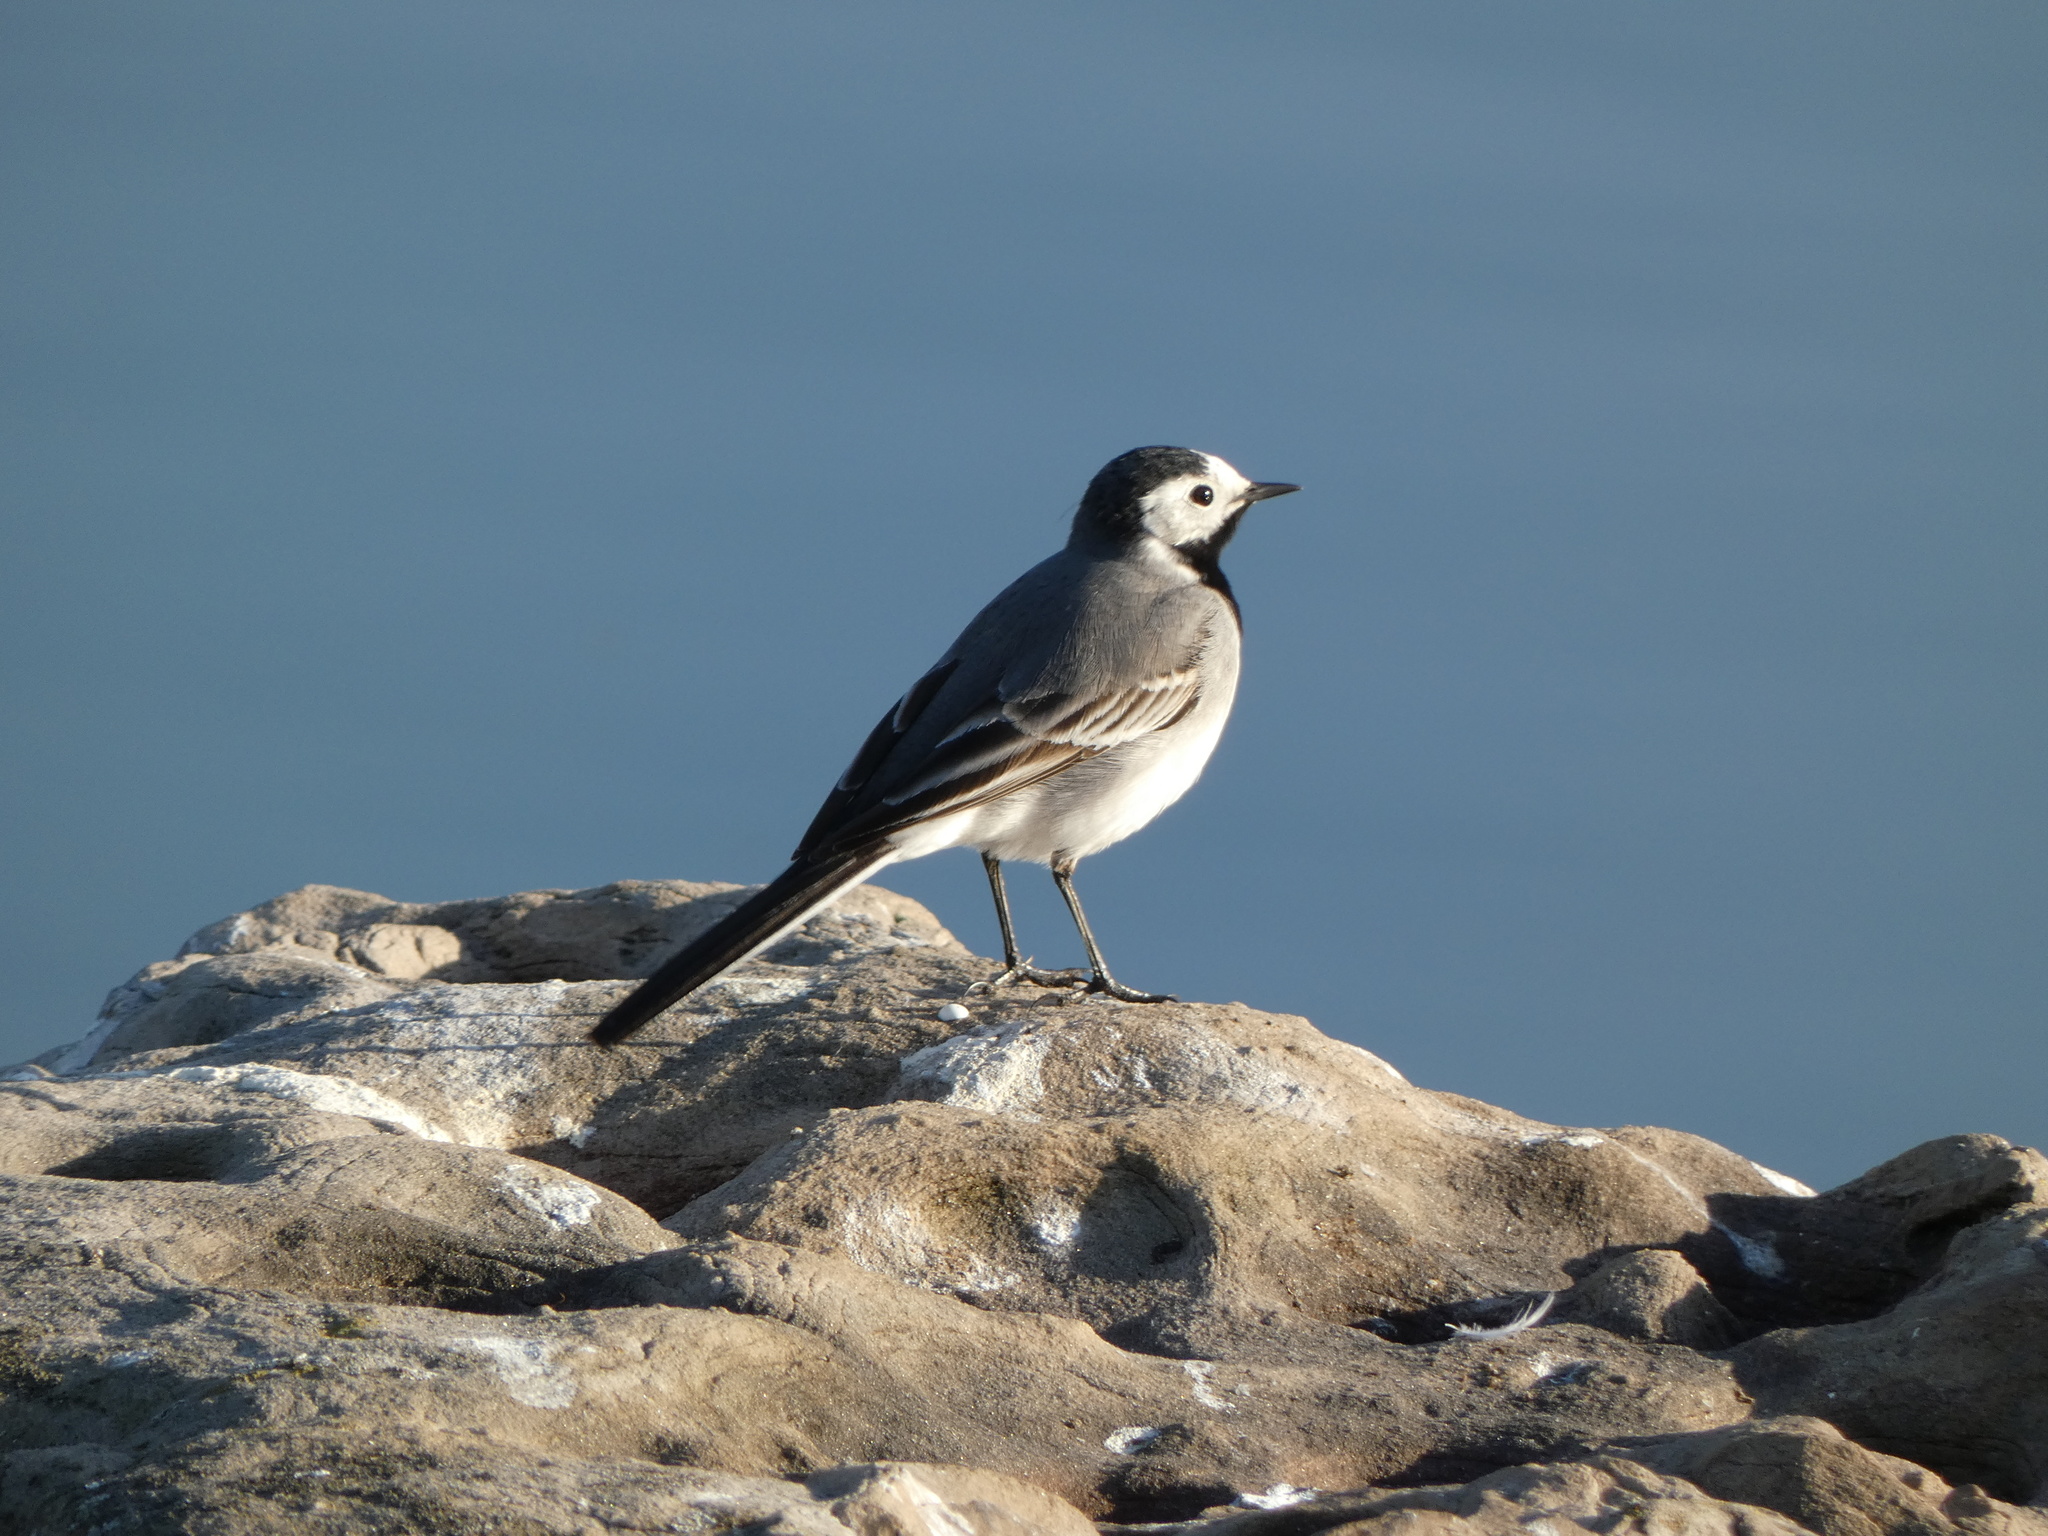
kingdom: Animalia
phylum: Chordata
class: Aves
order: Passeriformes
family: Motacillidae
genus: Motacilla
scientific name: Motacilla alba
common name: White wagtail
